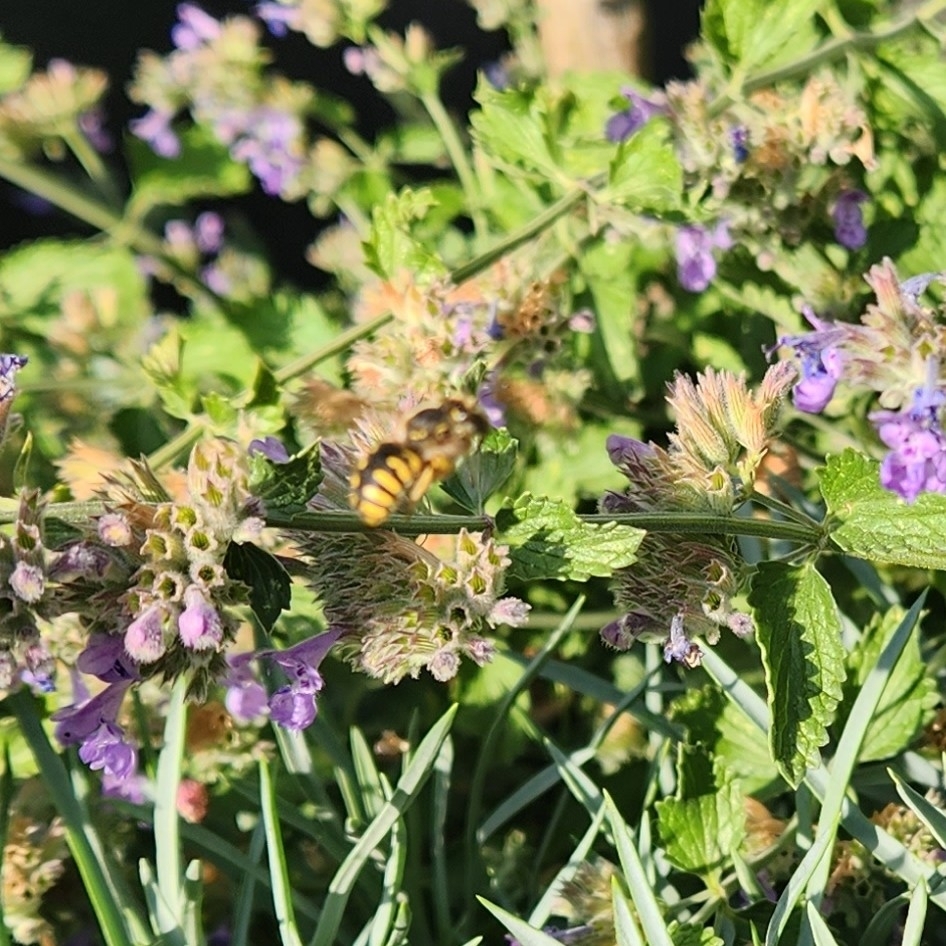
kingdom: Animalia
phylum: Arthropoda
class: Insecta
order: Hymenoptera
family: Megachilidae
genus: Anthidium
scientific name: Anthidium manicatum
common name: Wool carder bee
